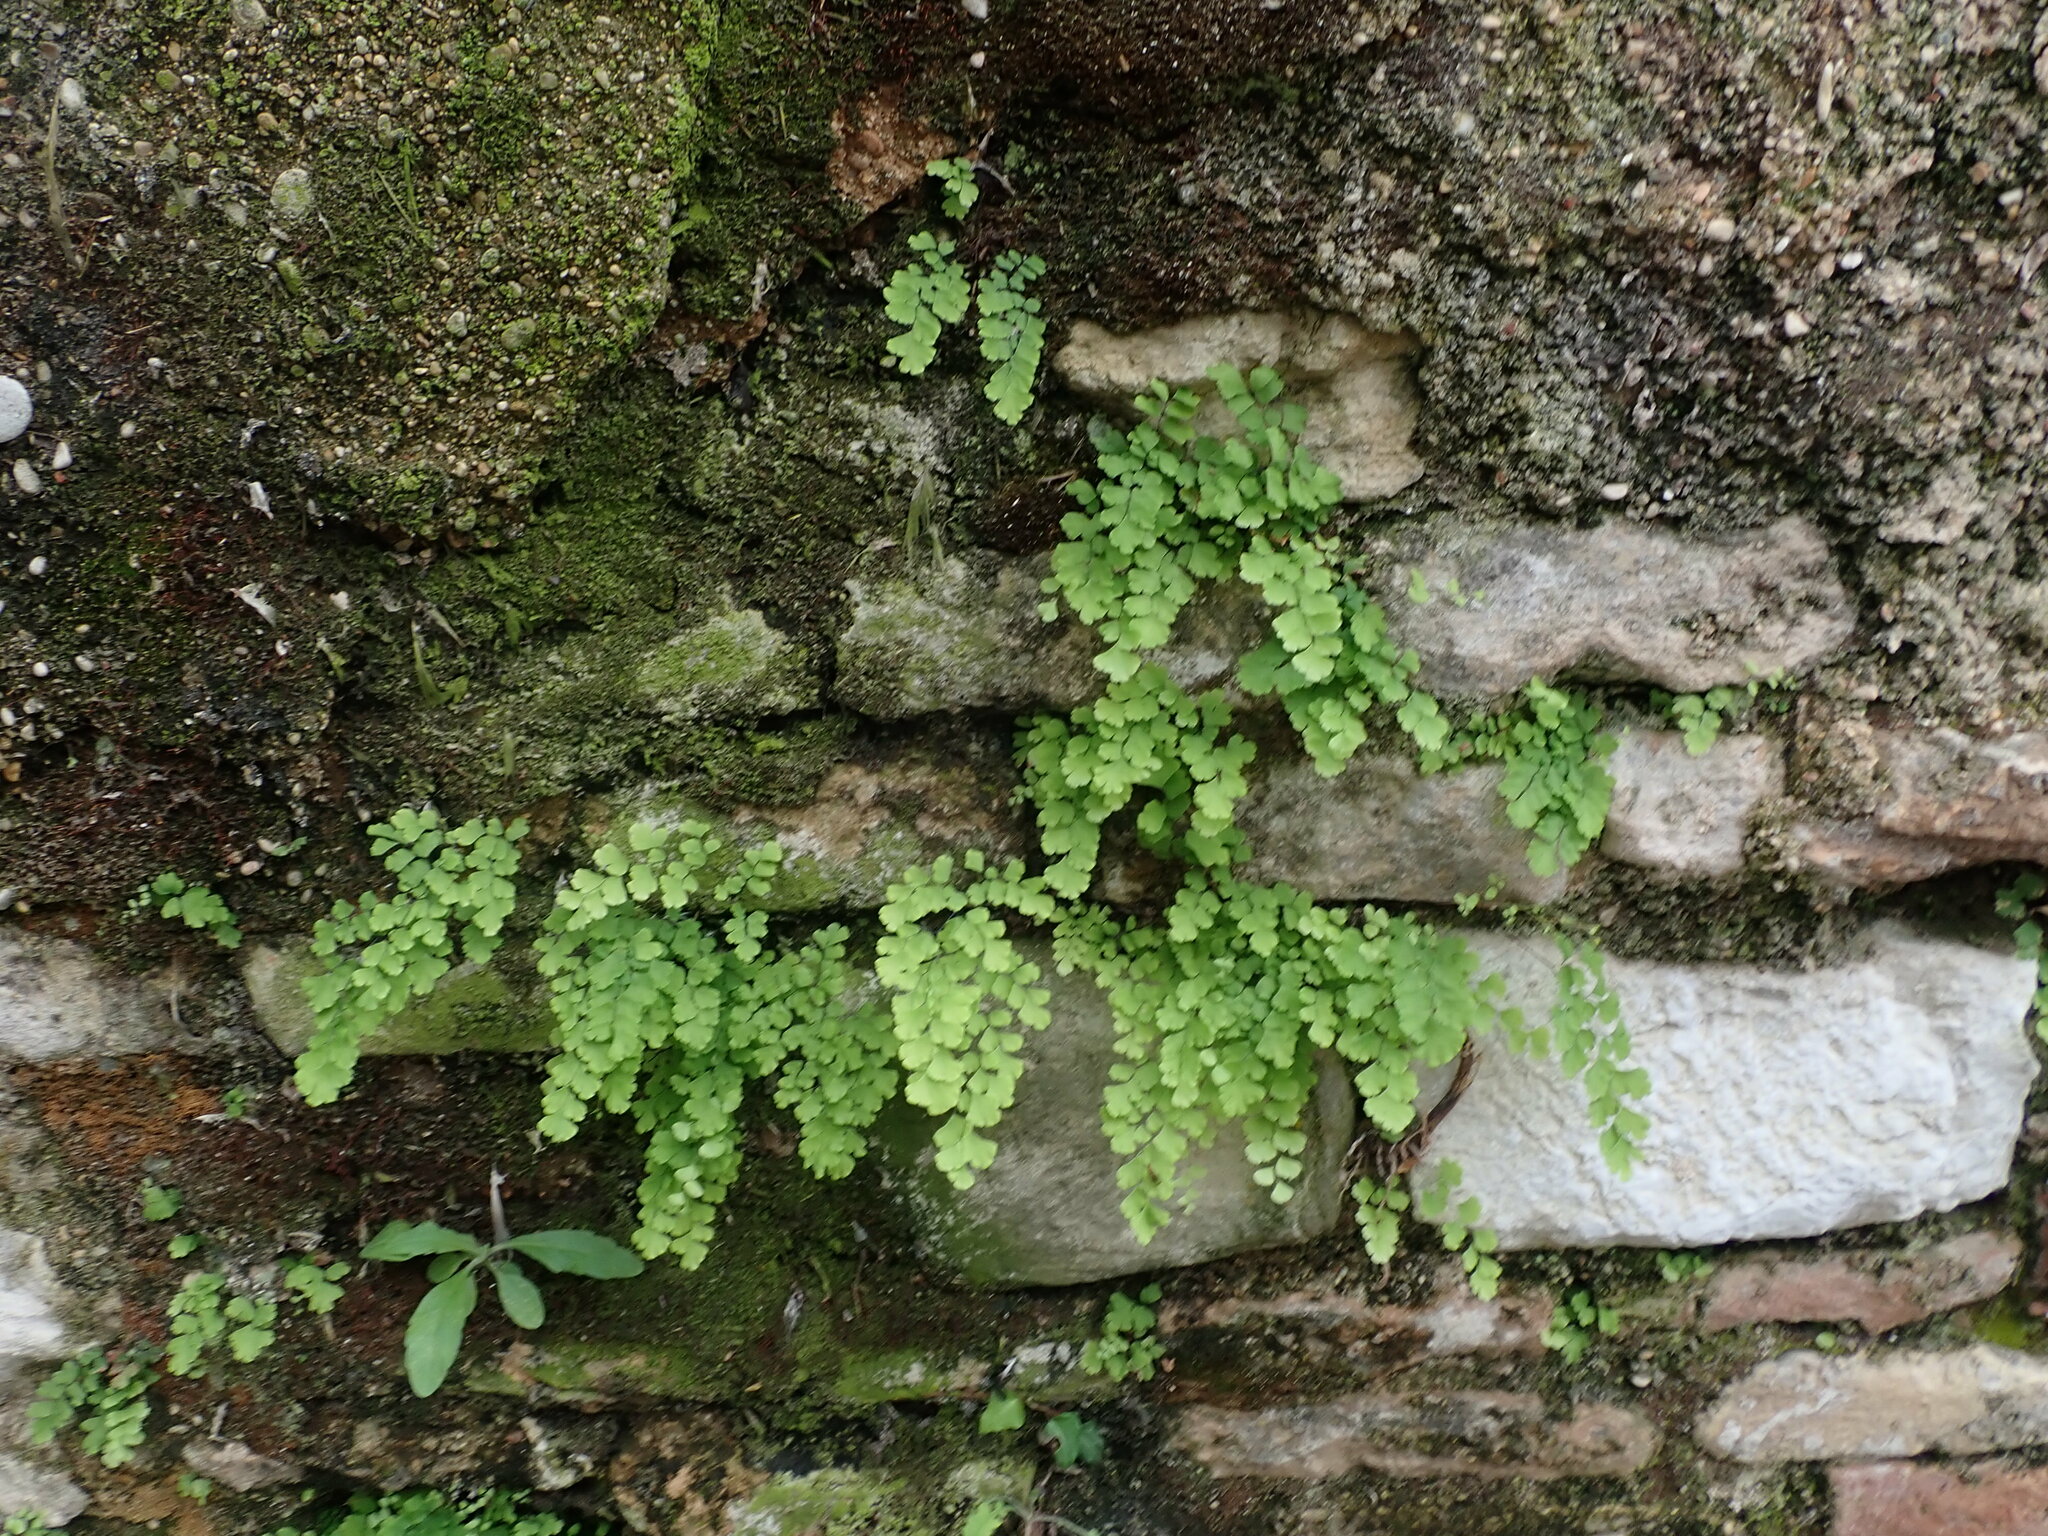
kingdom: Plantae
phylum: Tracheophyta
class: Polypodiopsida
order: Polypodiales
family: Pteridaceae
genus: Adiantum
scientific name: Adiantum capillus-veneris
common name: Maidenhair fern
